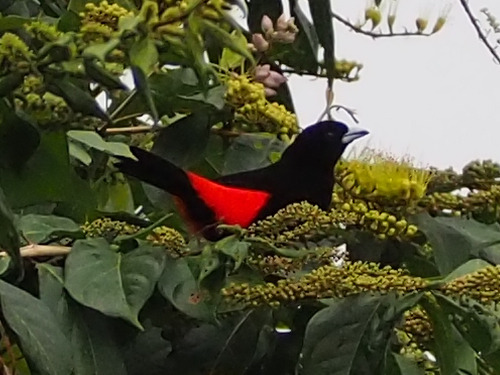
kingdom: Animalia
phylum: Chordata
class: Aves
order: Passeriformes
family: Thraupidae
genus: Ramphocelus
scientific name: Ramphocelus passerinii
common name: Passerini's tanager
